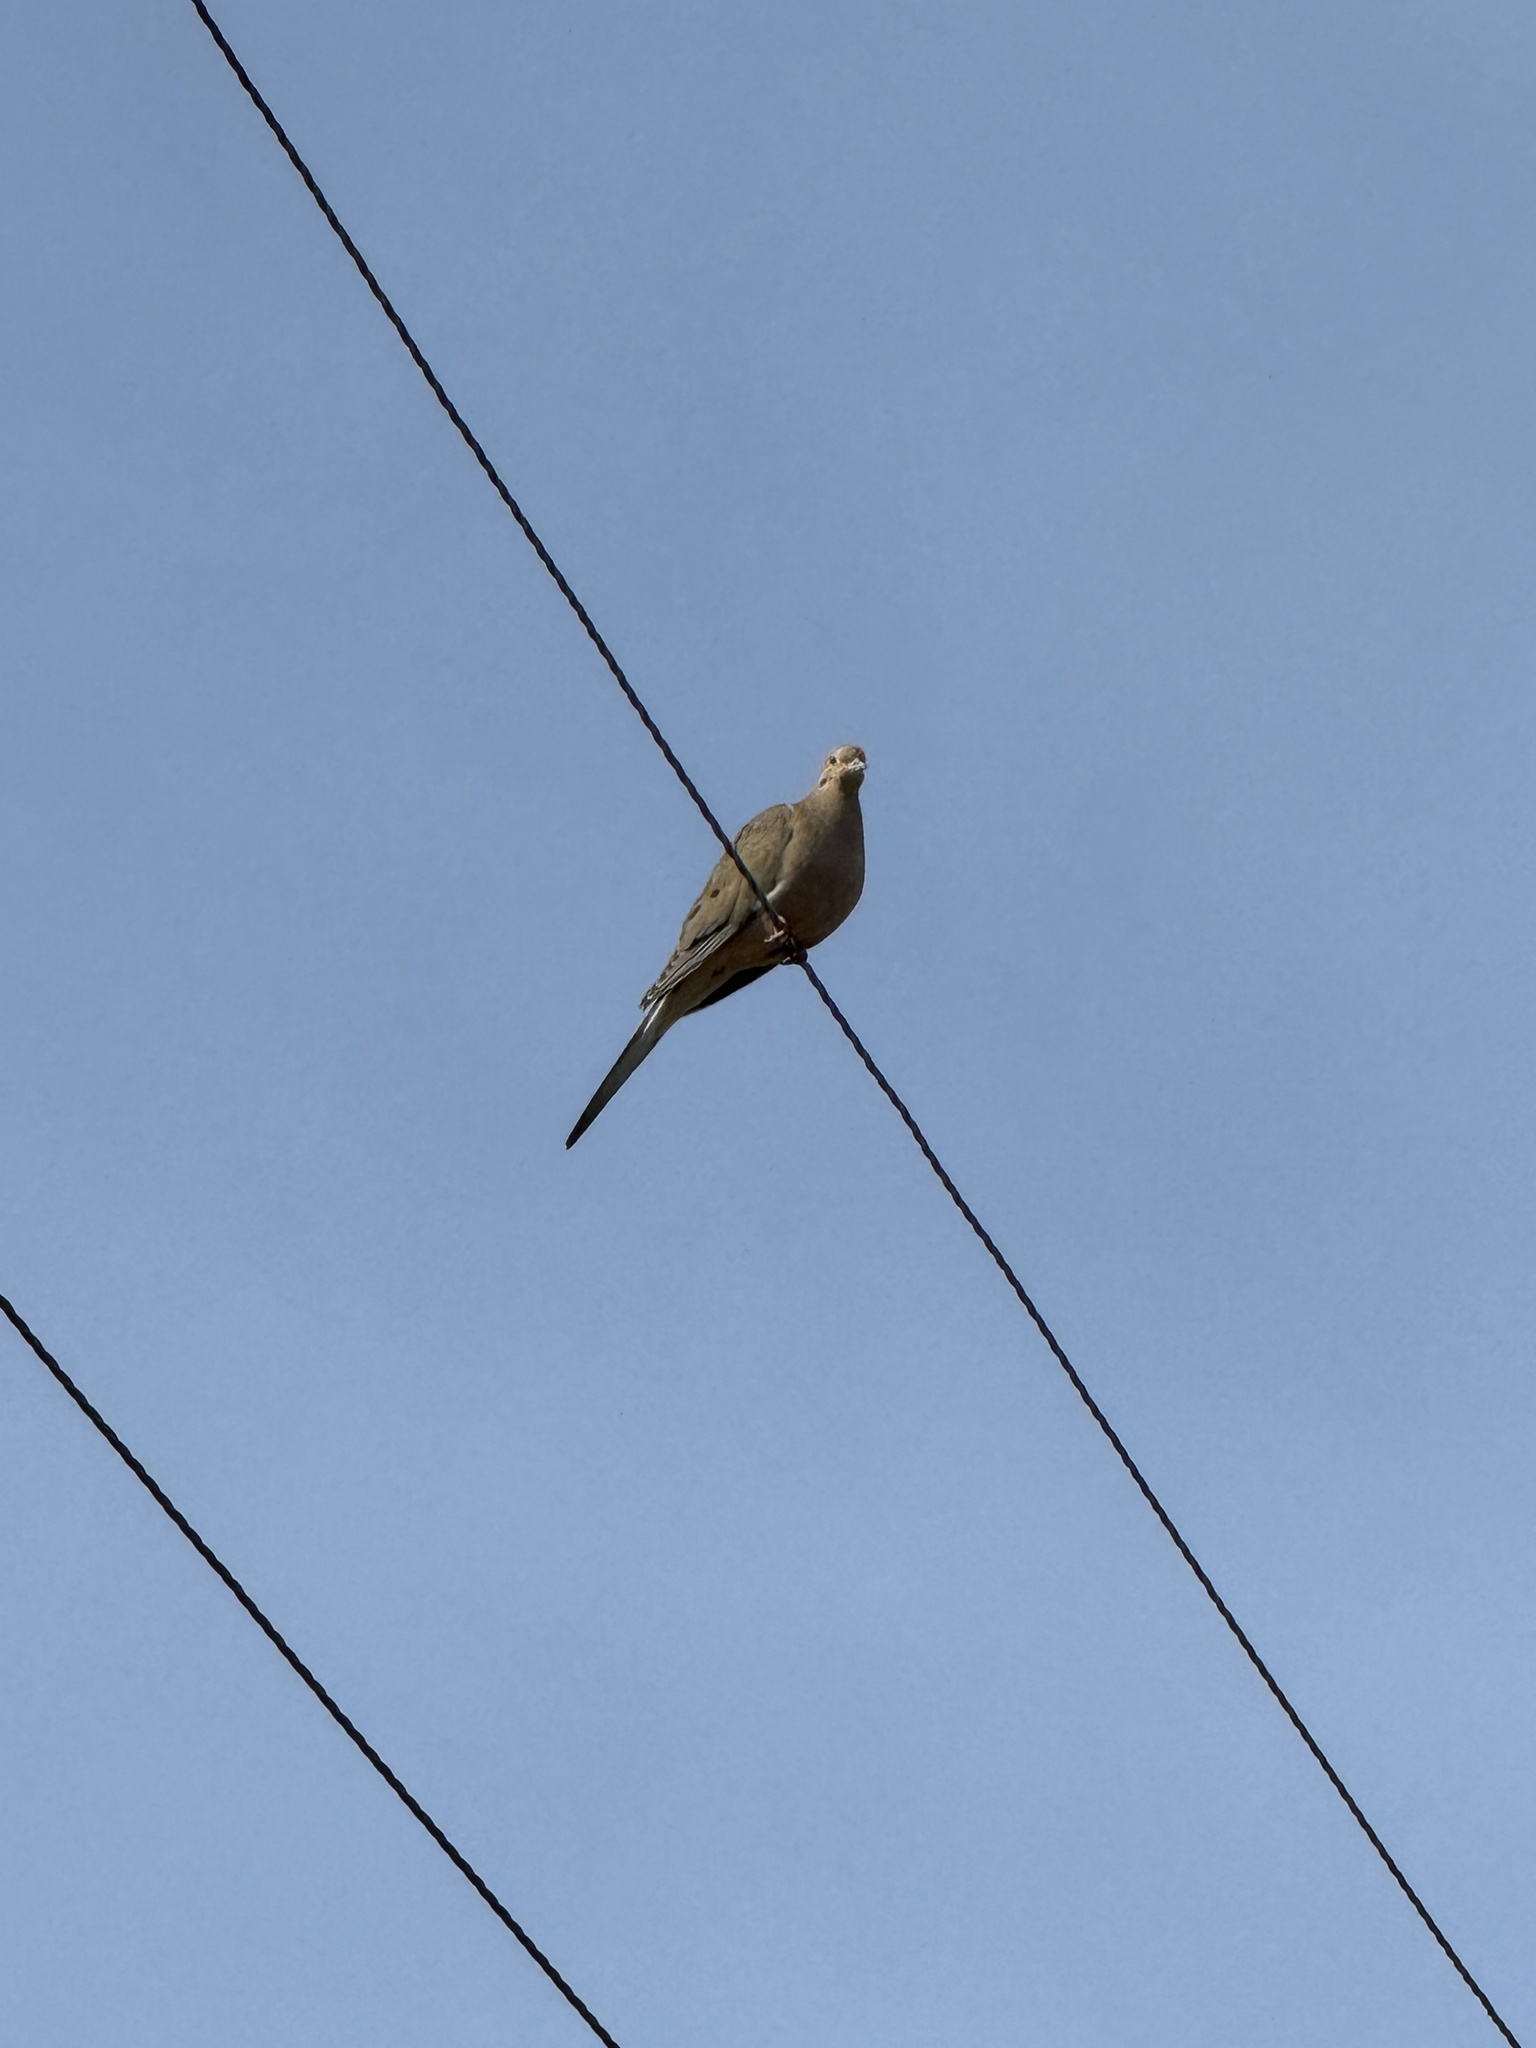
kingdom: Animalia
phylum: Chordata
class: Aves
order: Columbiformes
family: Columbidae
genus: Zenaida
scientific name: Zenaida macroura
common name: Mourning dove
